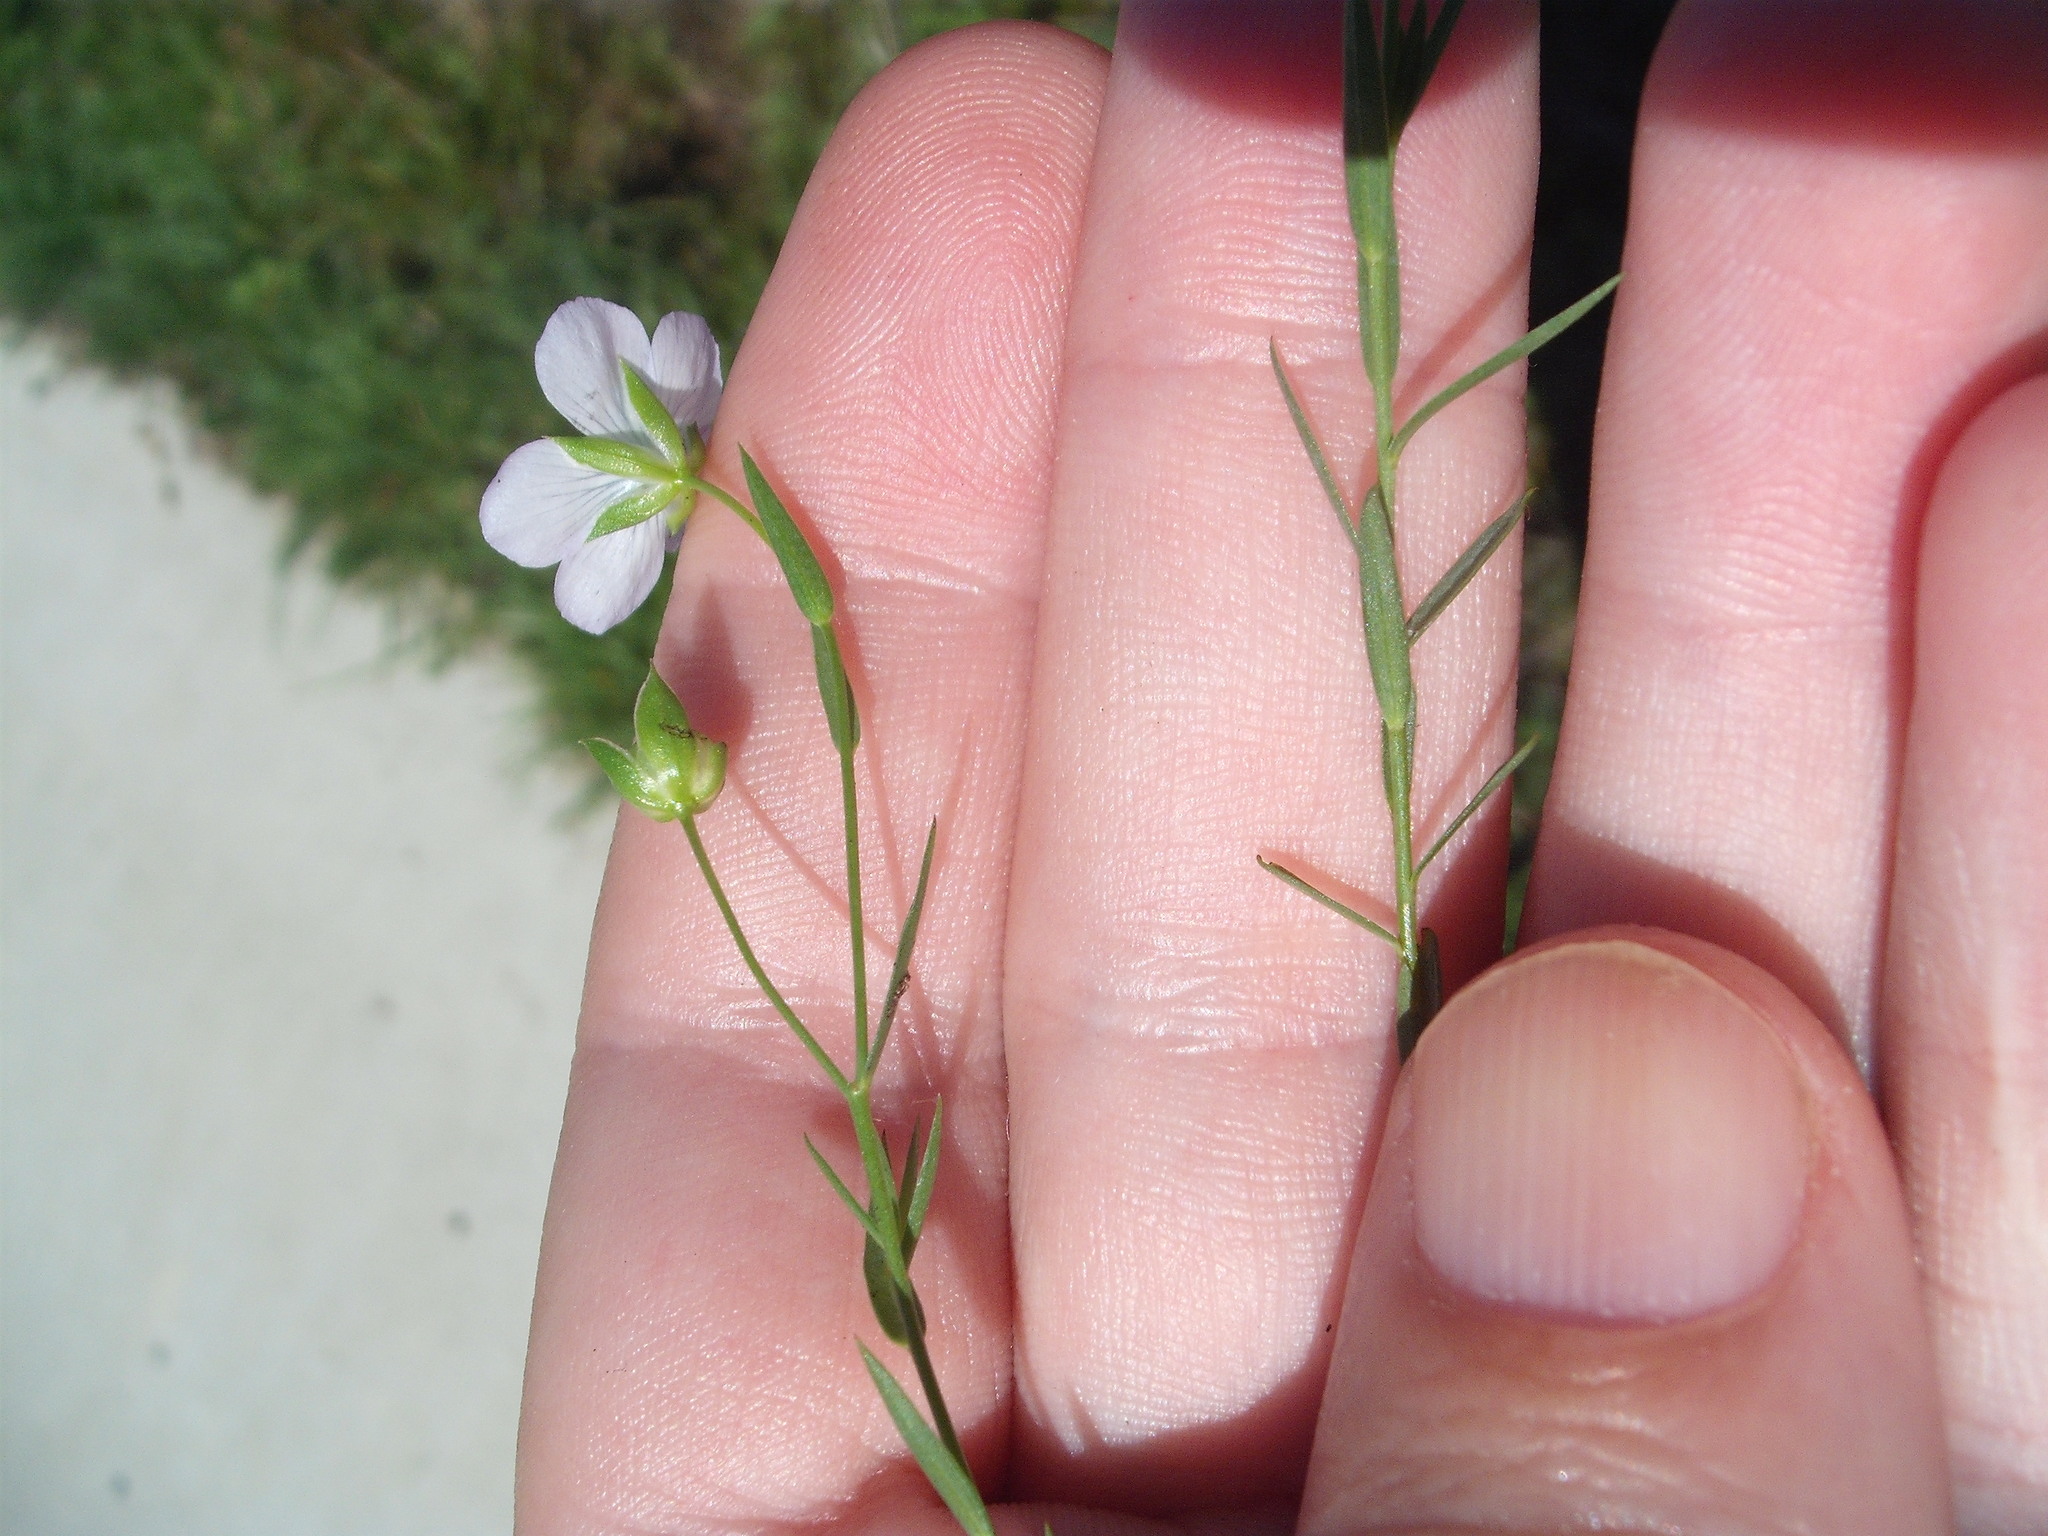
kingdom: Plantae
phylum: Tracheophyta
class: Magnoliopsida
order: Malpighiales
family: Linaceae
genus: Linum
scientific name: Linum bienne
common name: Pale flax
